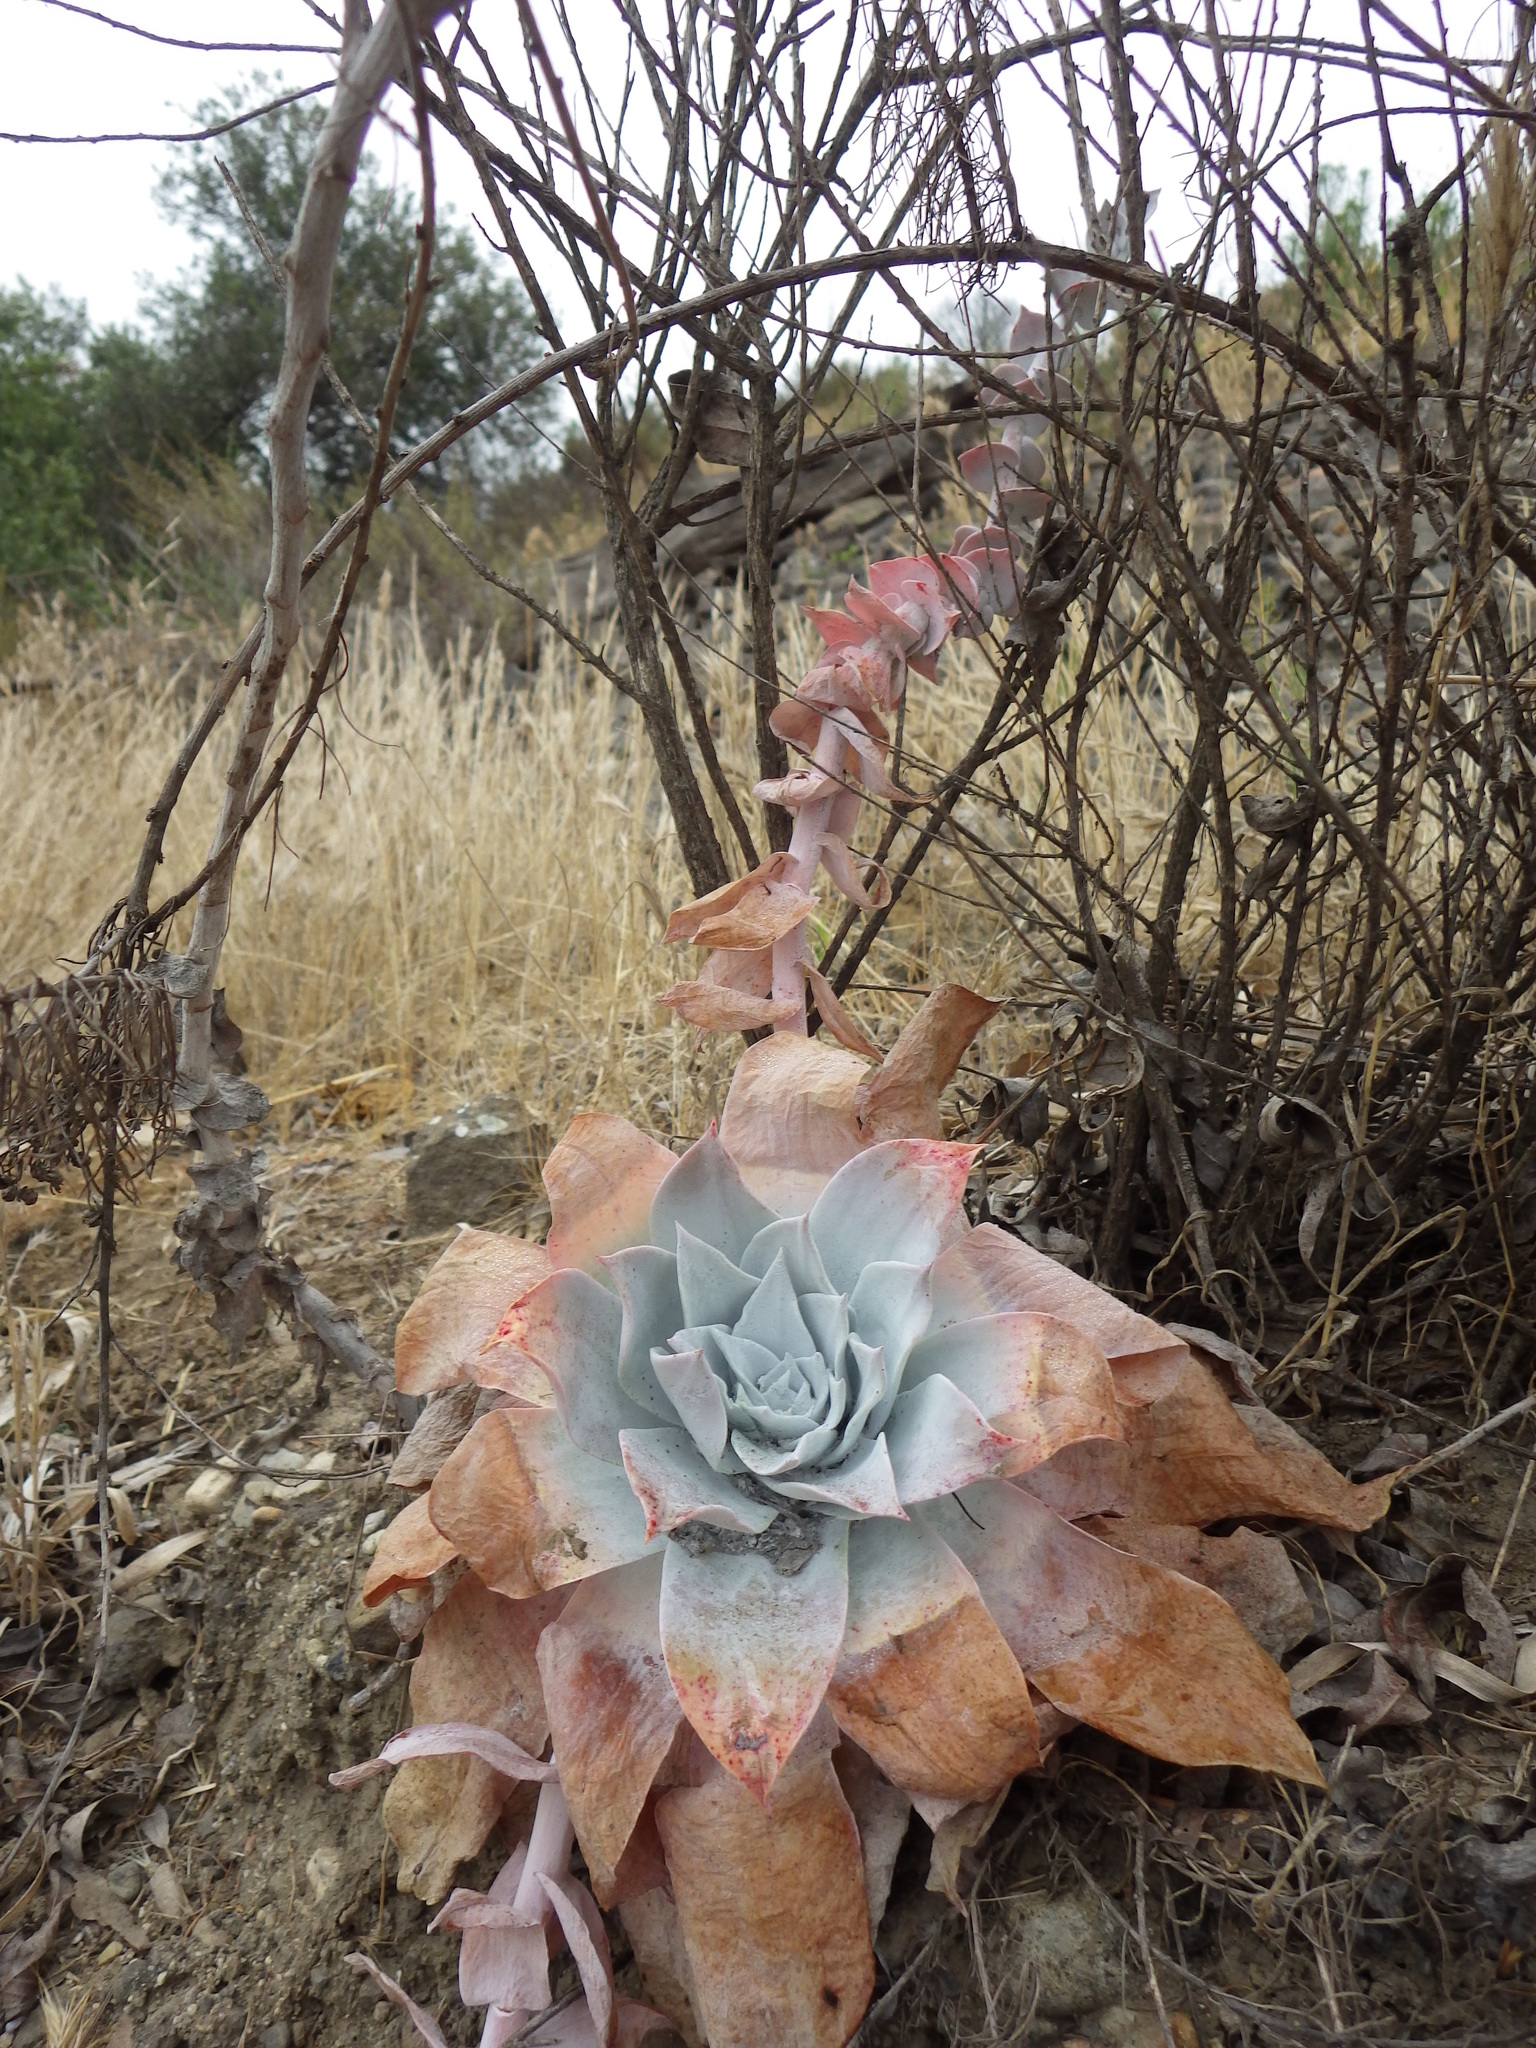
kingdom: Plantae
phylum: Tracheophyta
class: Magnoliopsida
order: Saxifragales
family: Crassulaceae
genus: Dudleya
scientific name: Dudleya pulverulenta
